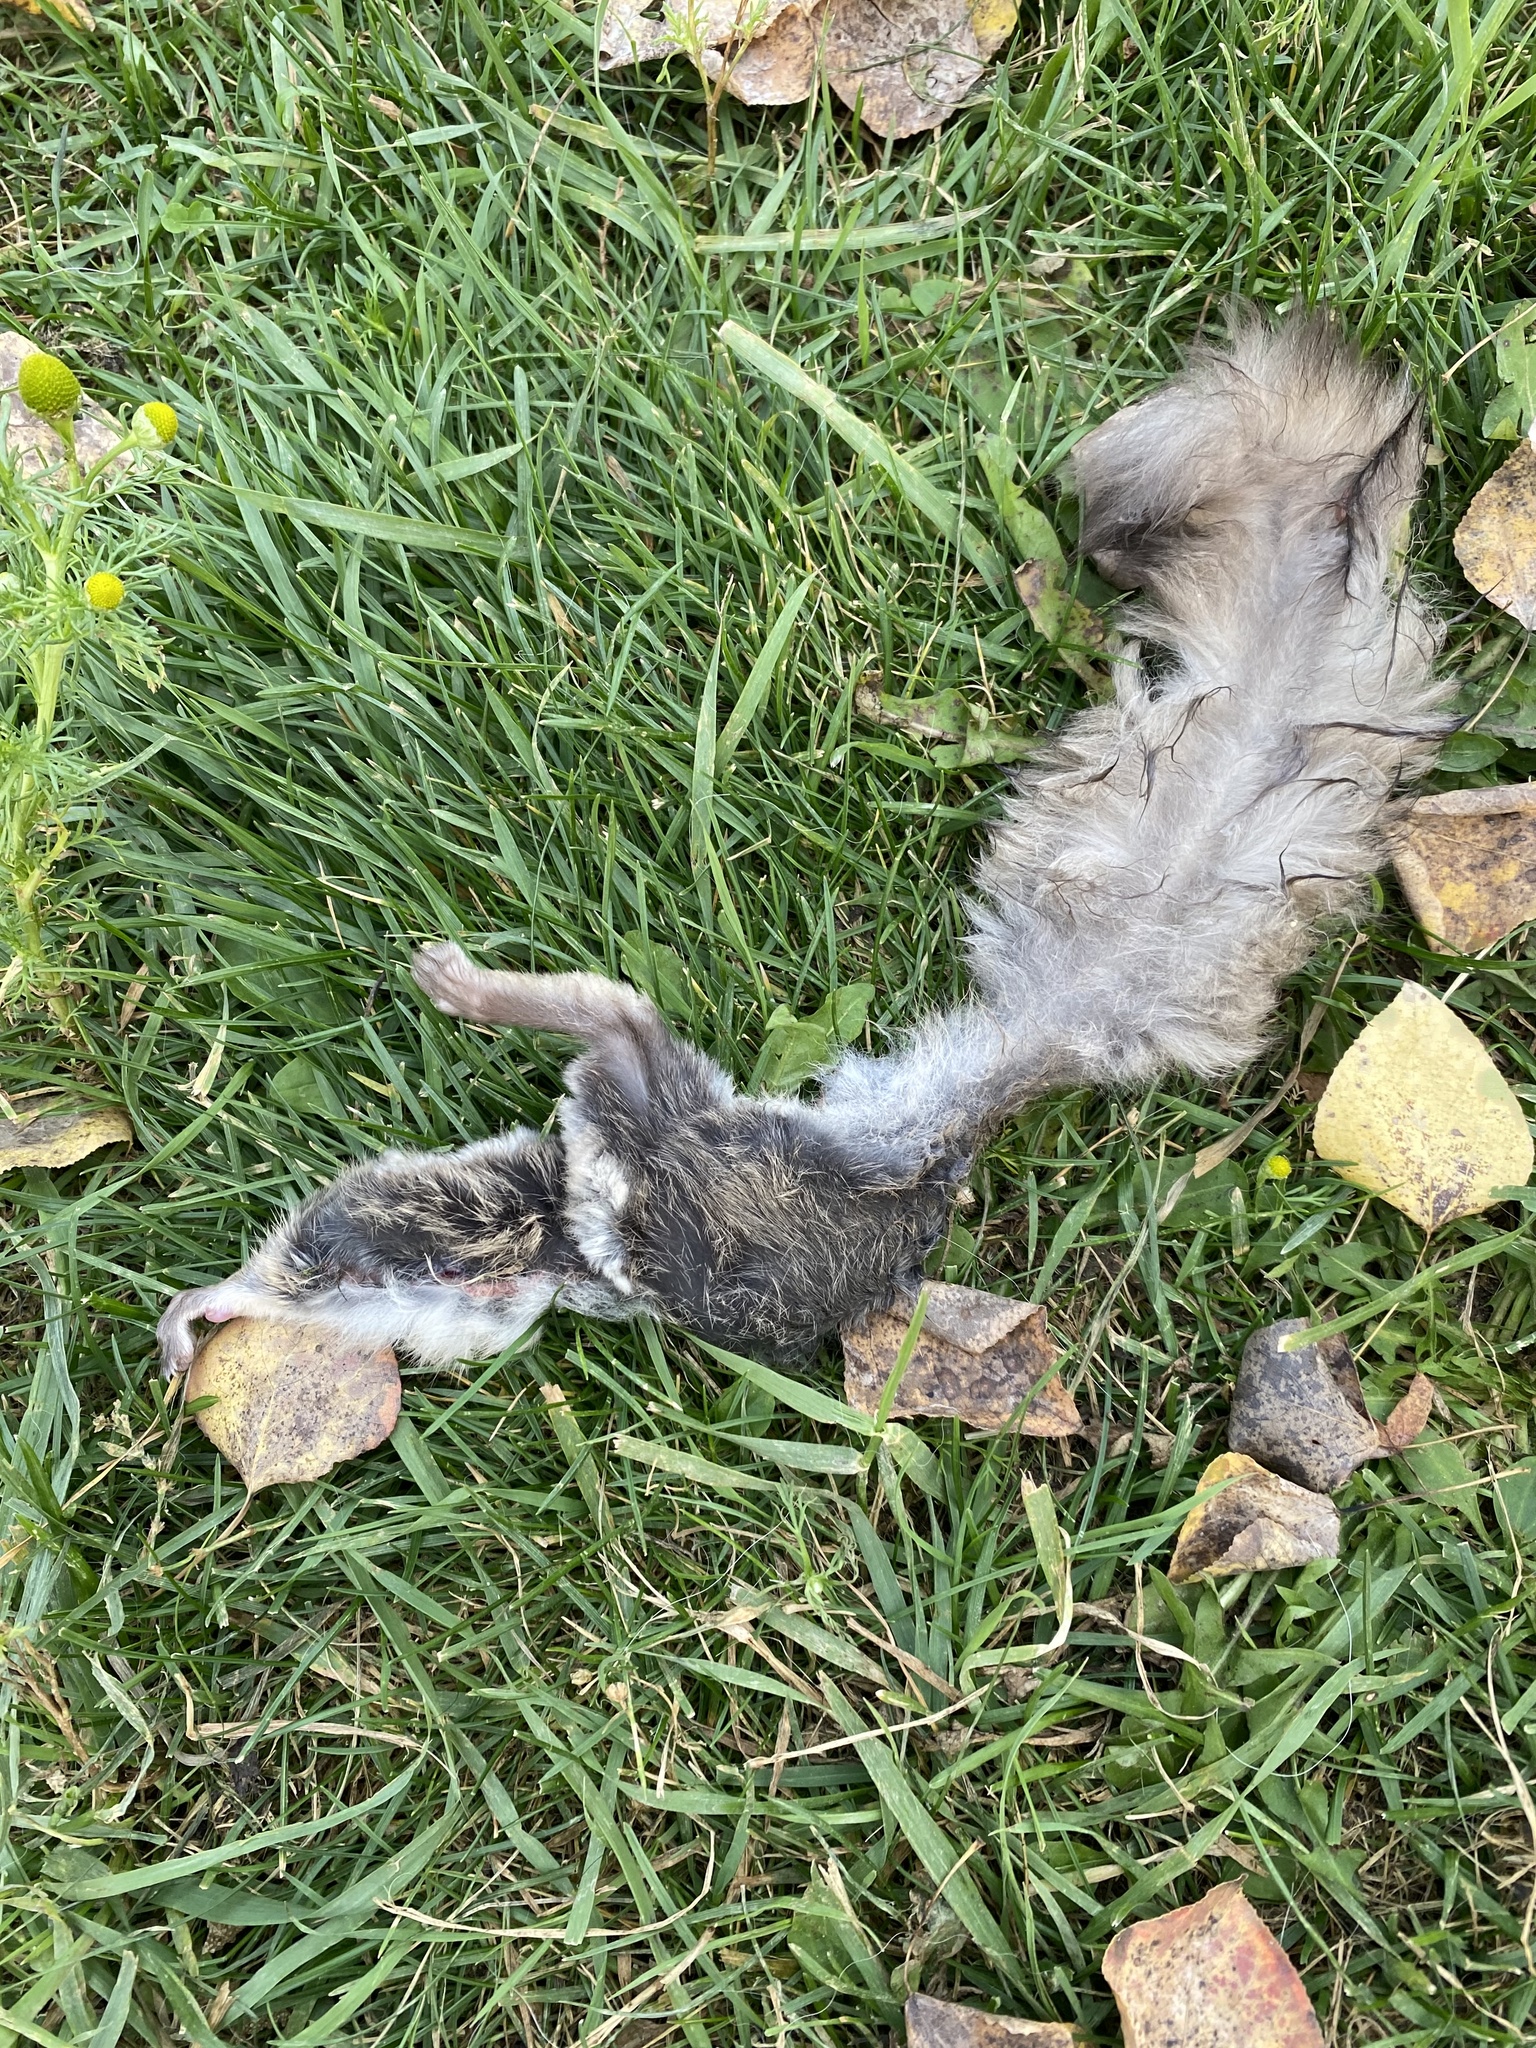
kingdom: Animalia
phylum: Chordata
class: Mammalia
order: Rodentia
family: Sciuridae
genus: Glaucomys
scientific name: Glaucomys sabrinus
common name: Northern flying squirrel
